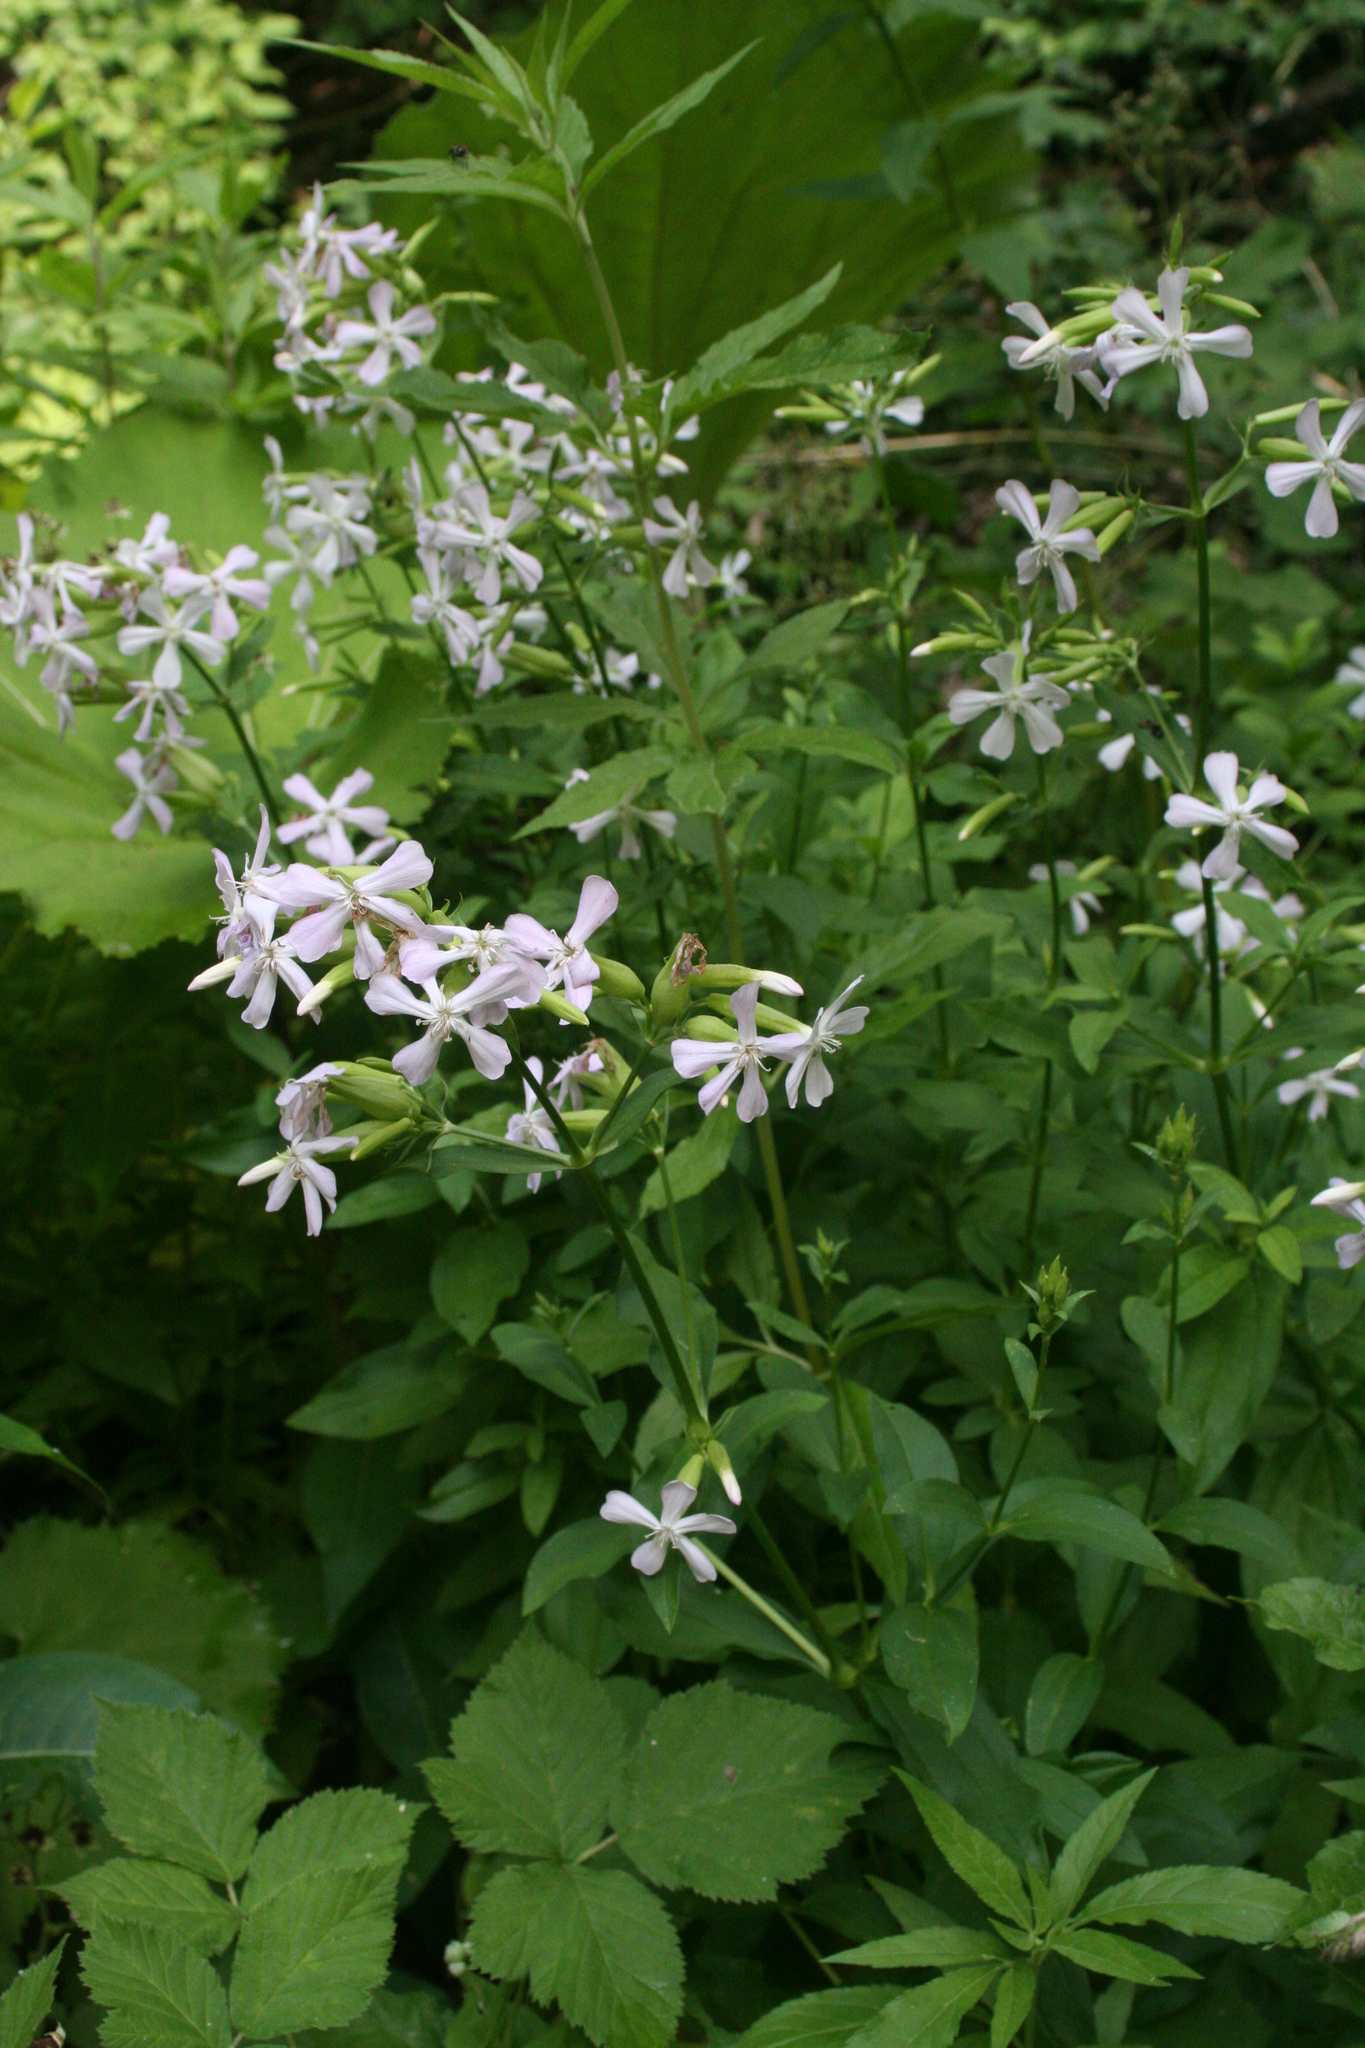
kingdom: Plantae
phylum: Tracheophyta
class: Magnoliopsida
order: Caryophyllales
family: Caryophyllaceae
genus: Saponaria
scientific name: Saponaria officinalis
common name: Soapwort
